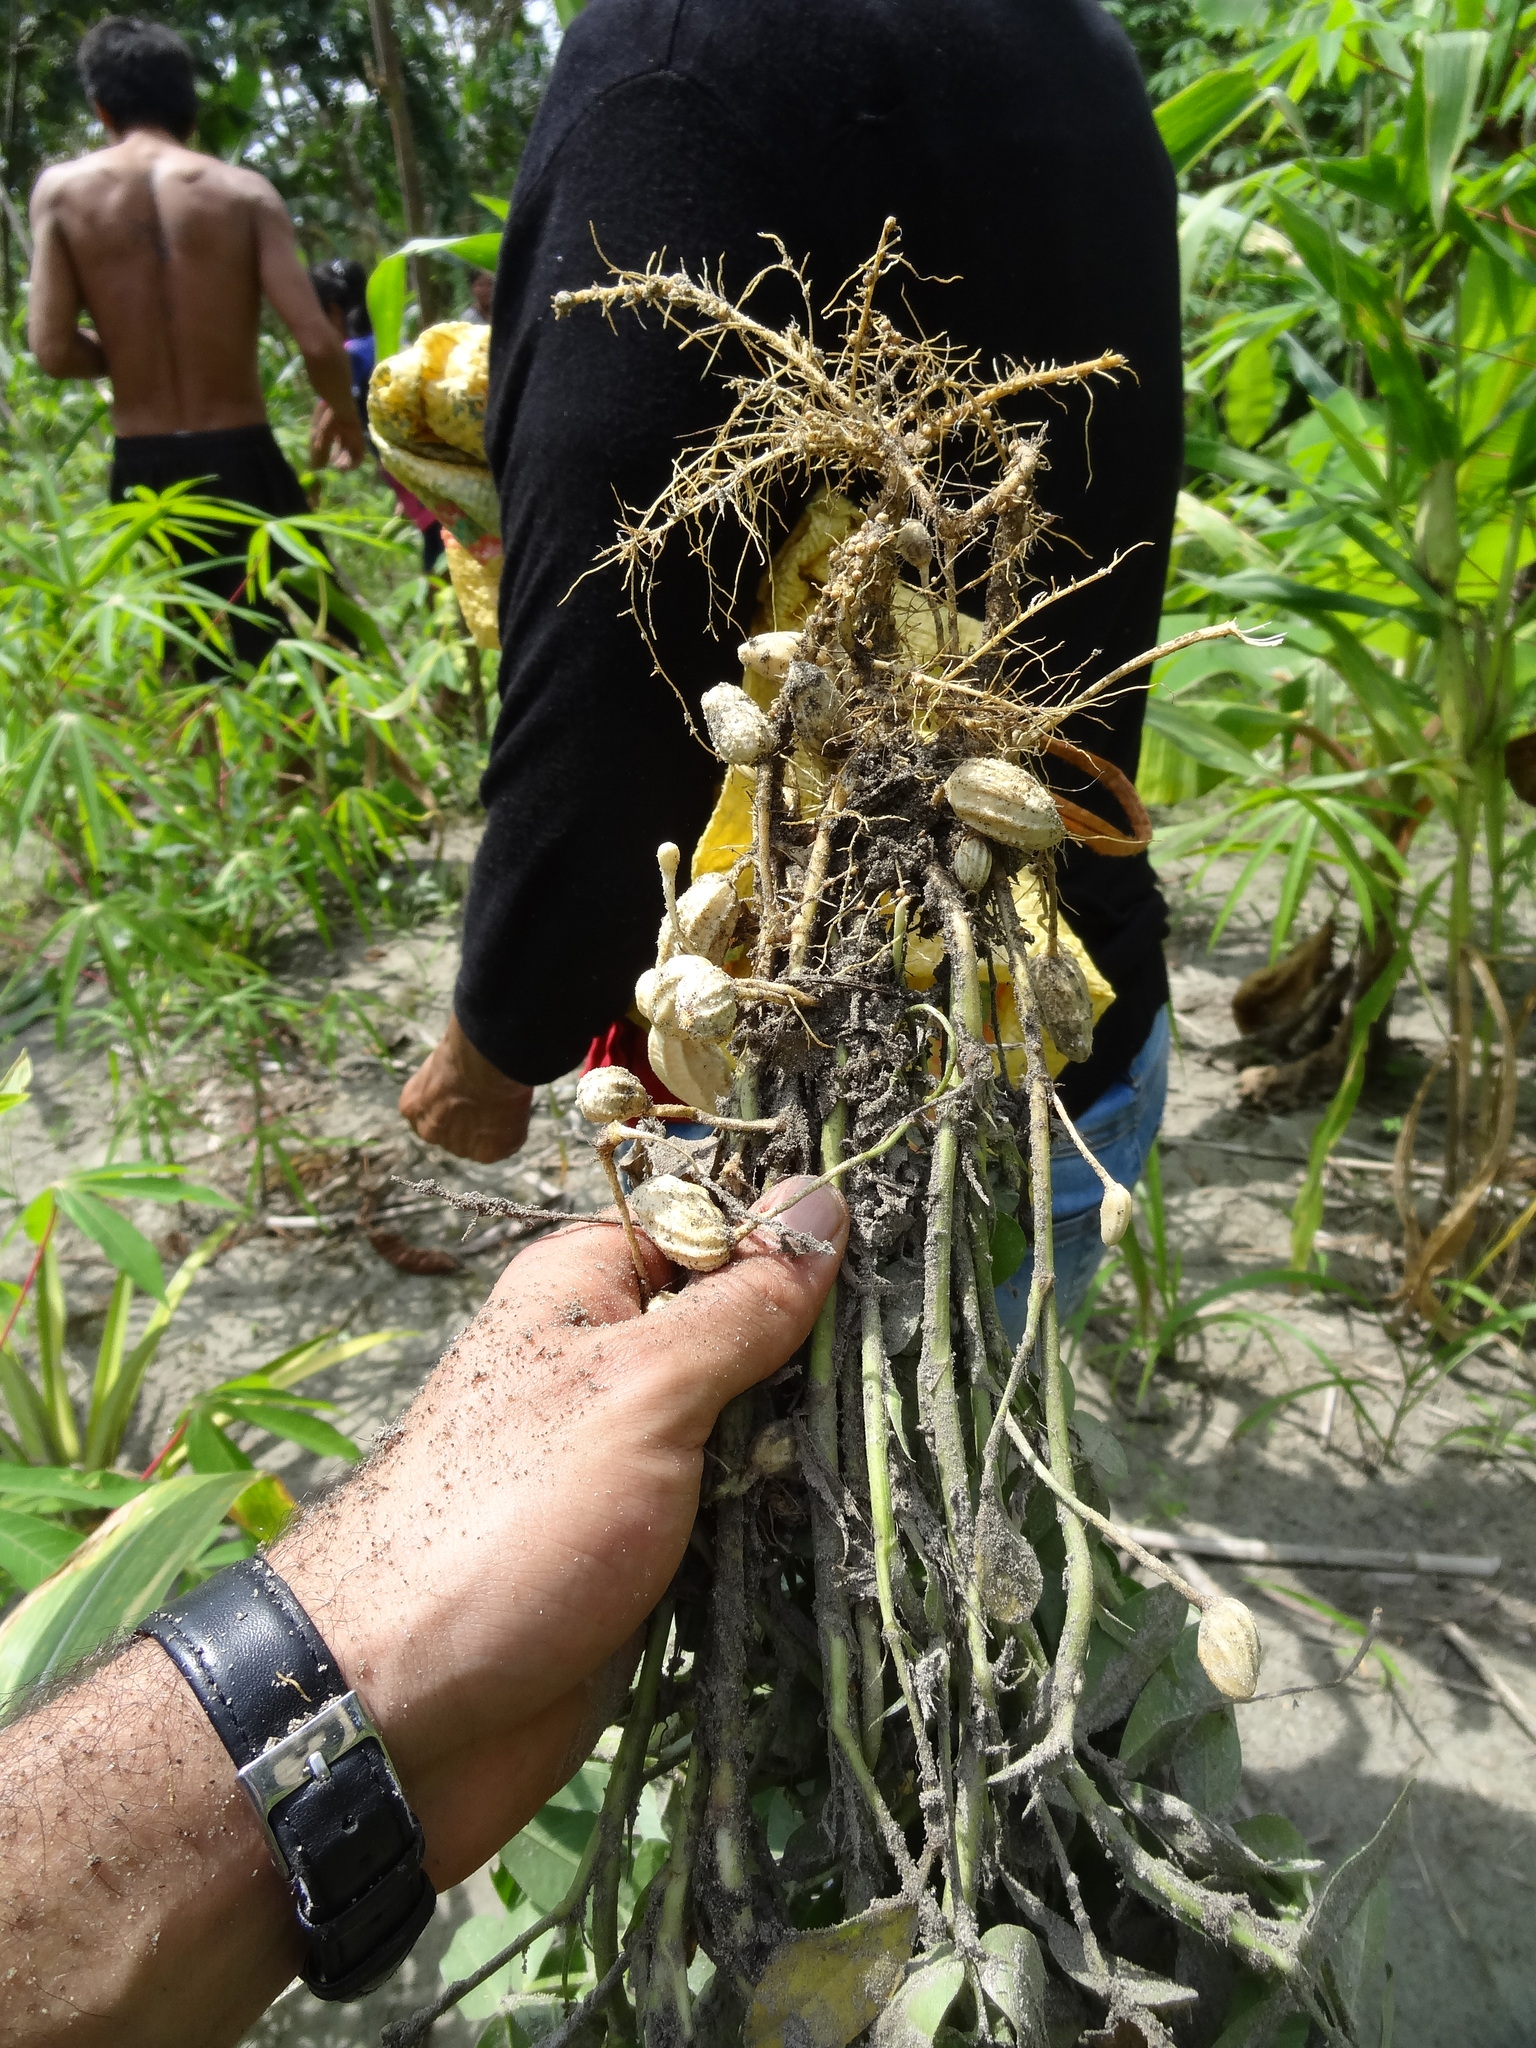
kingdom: Plantae
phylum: Tracheophyta
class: Magnoliopsida
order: Fabales
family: Fabaceae
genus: Arachis
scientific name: Arachis hypogaea
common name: Peanut
